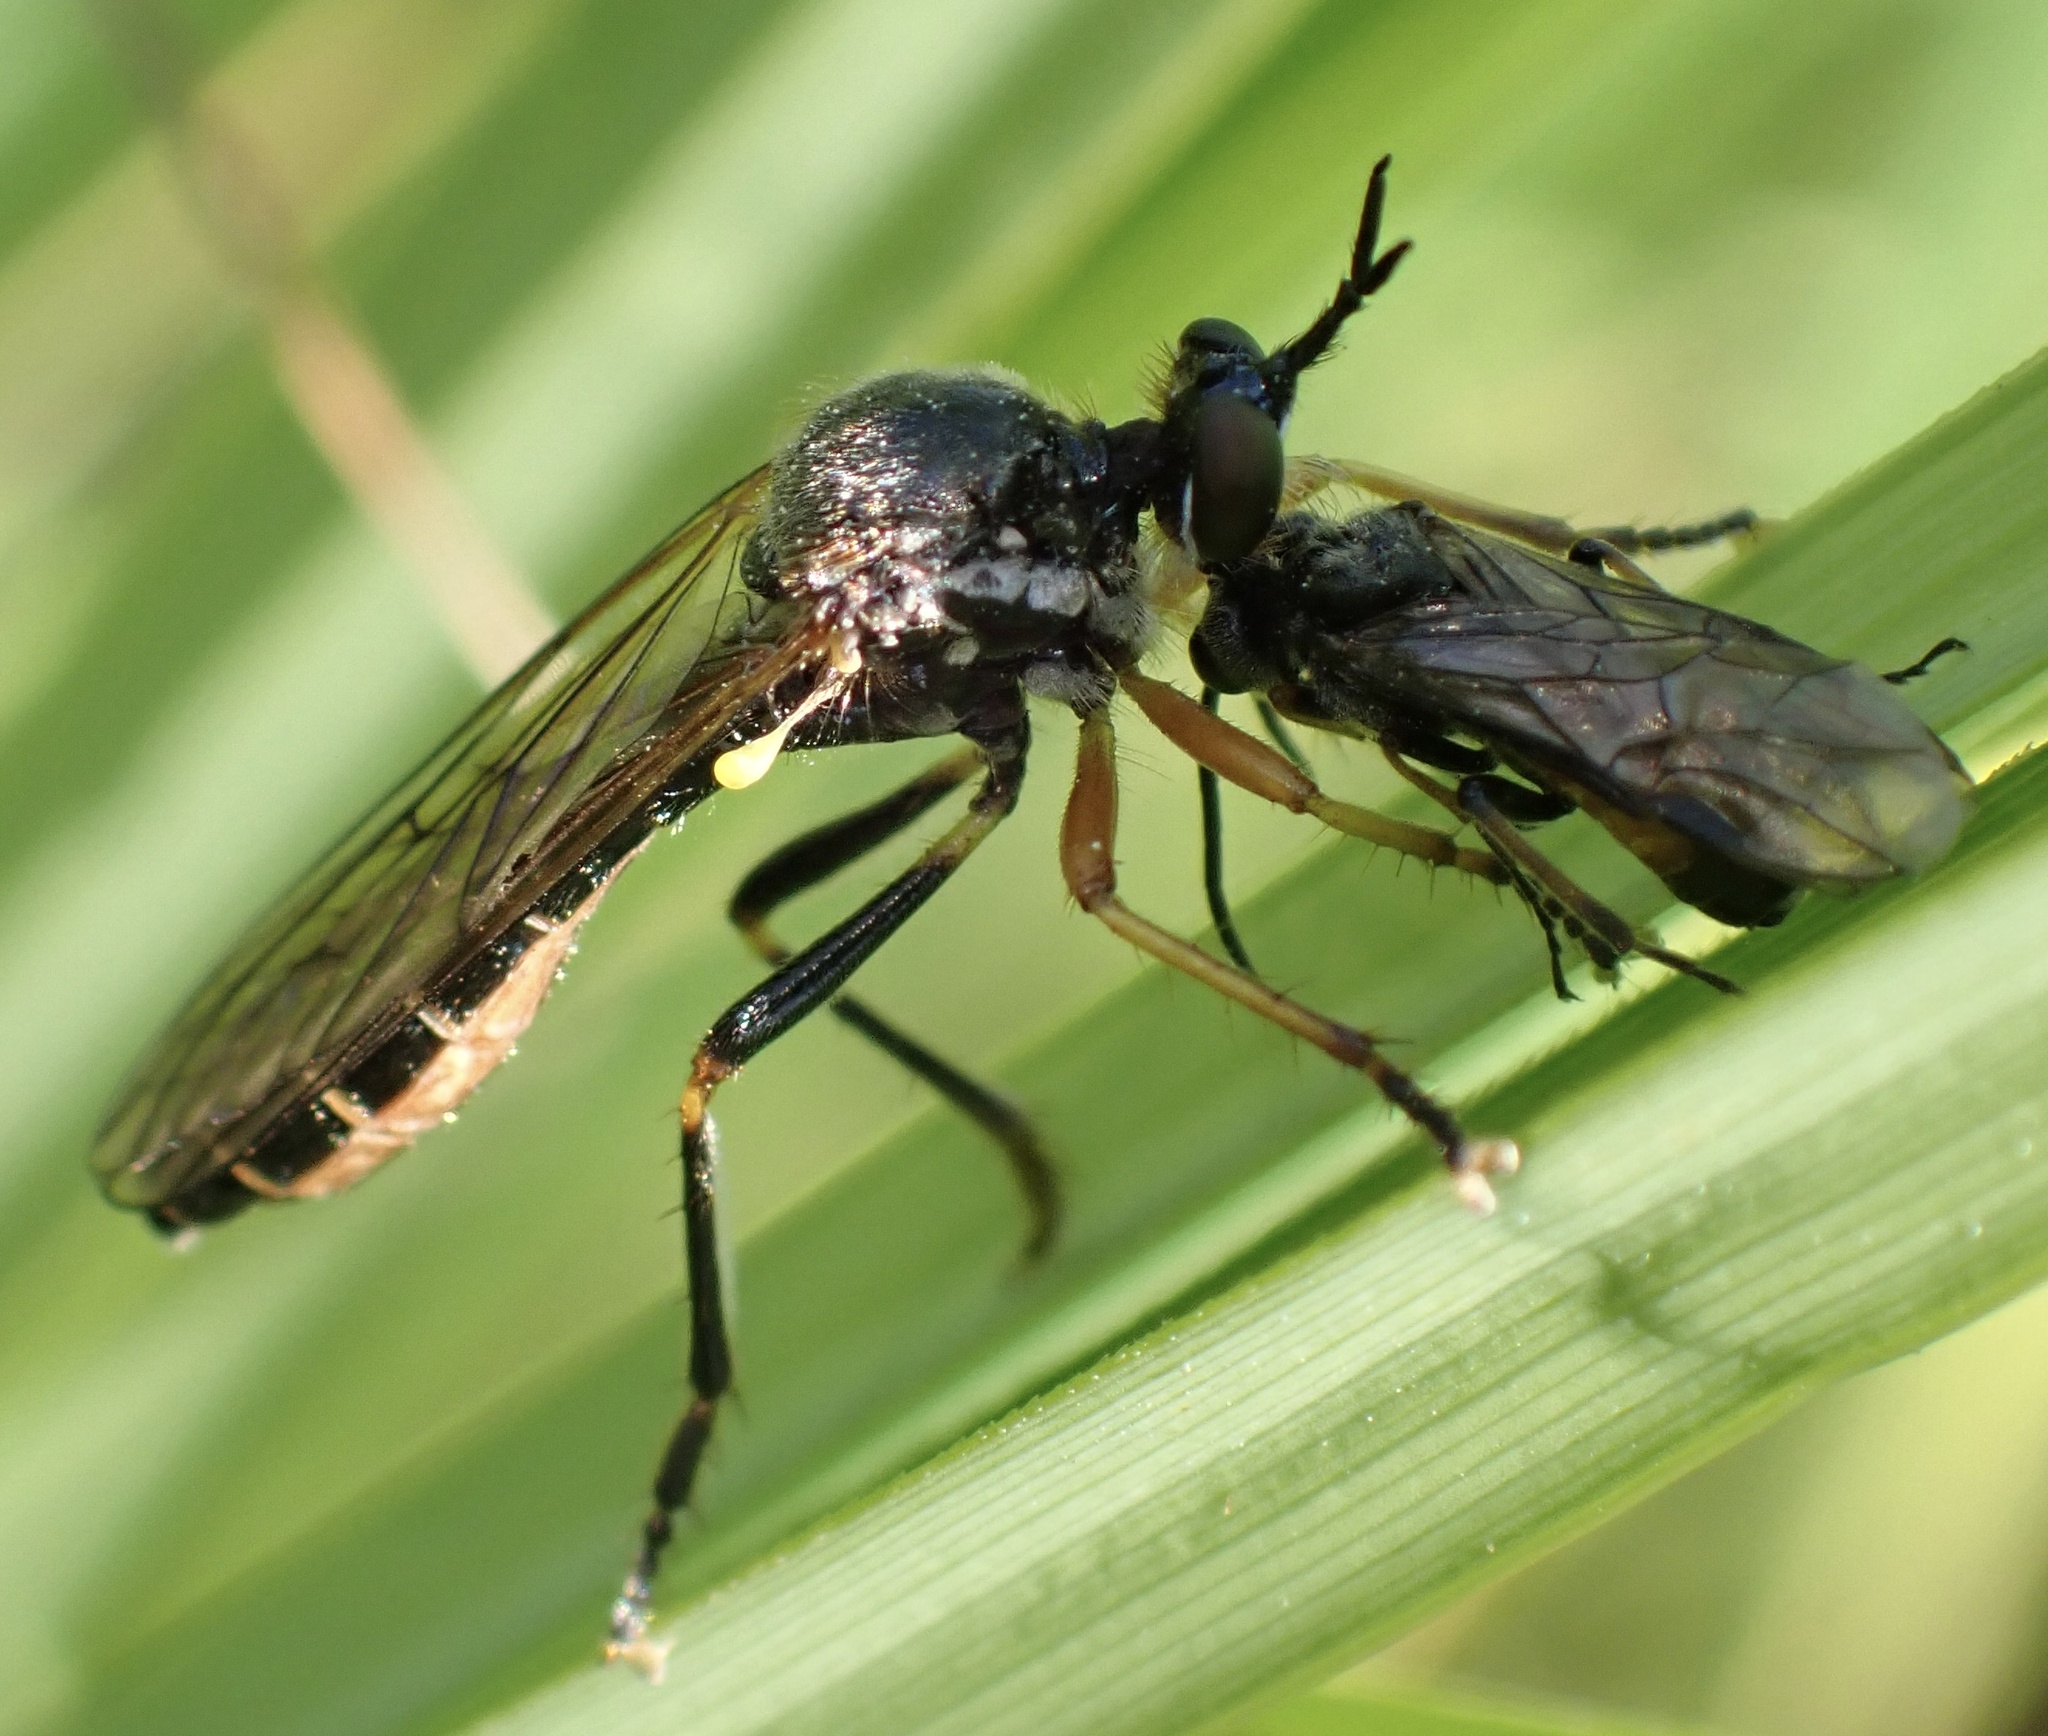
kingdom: Animalia
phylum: Arthropoda
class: Insecta
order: Diptera
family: Asilidae
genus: Dioctria
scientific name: Dioctria rufipes
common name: Common red-legged robberfly
